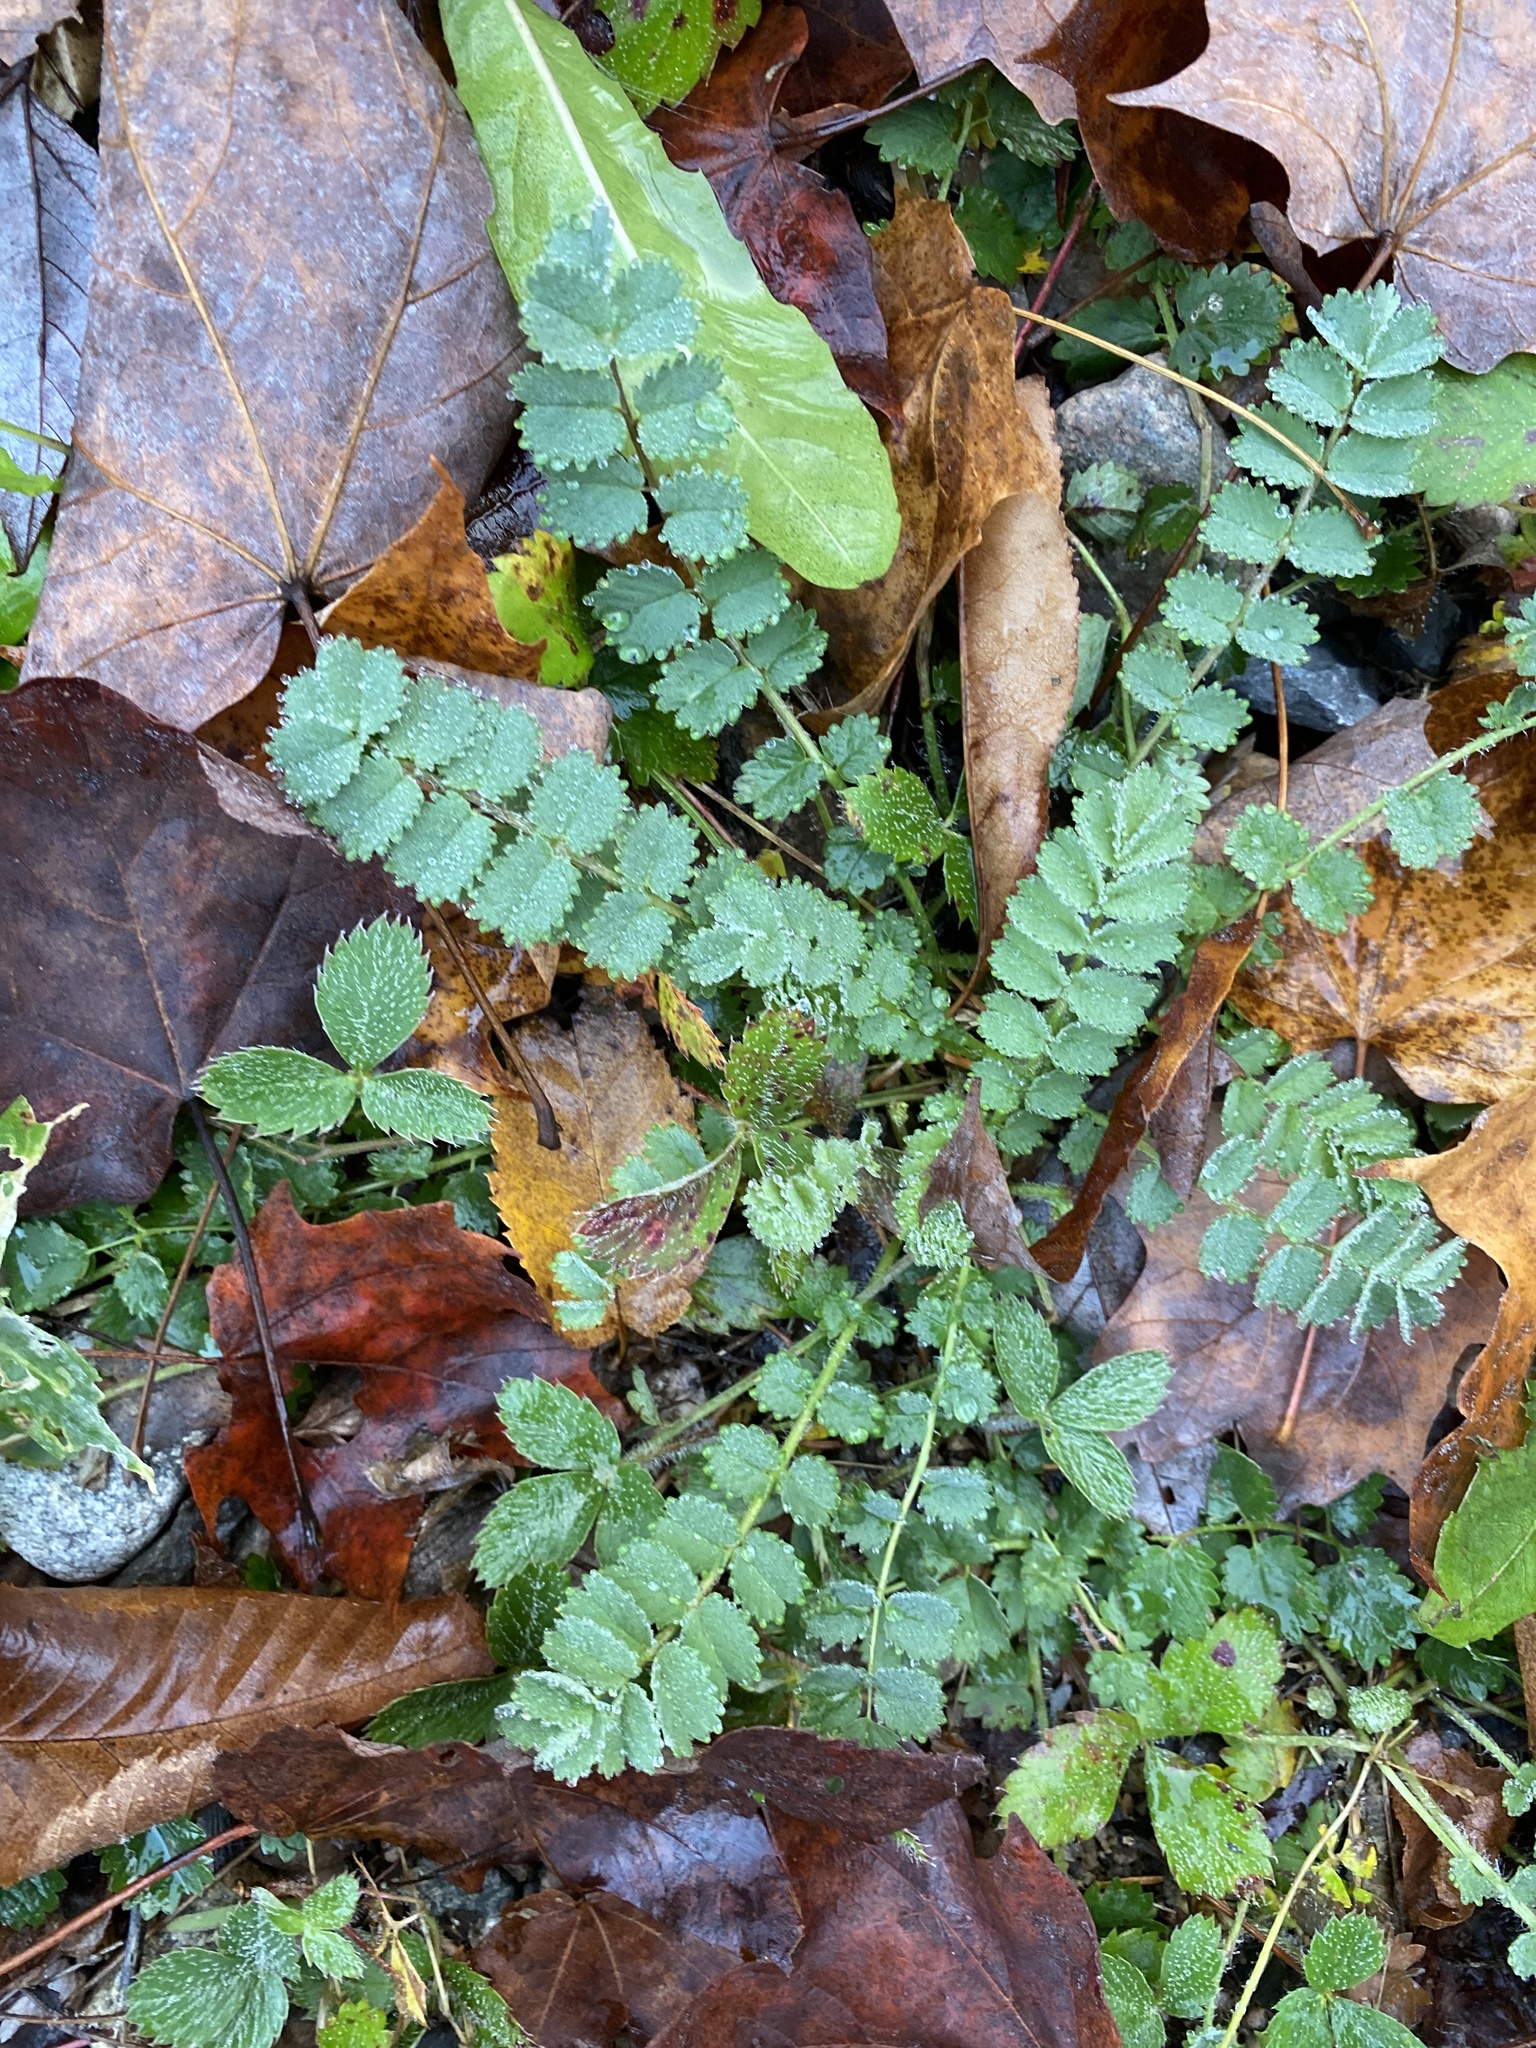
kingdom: Plantae
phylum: Tracheophyta
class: Magnoliopsida
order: Rosales
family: Rosaceae
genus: Poterium
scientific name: Poterium sanguisorba
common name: Salad burnet
